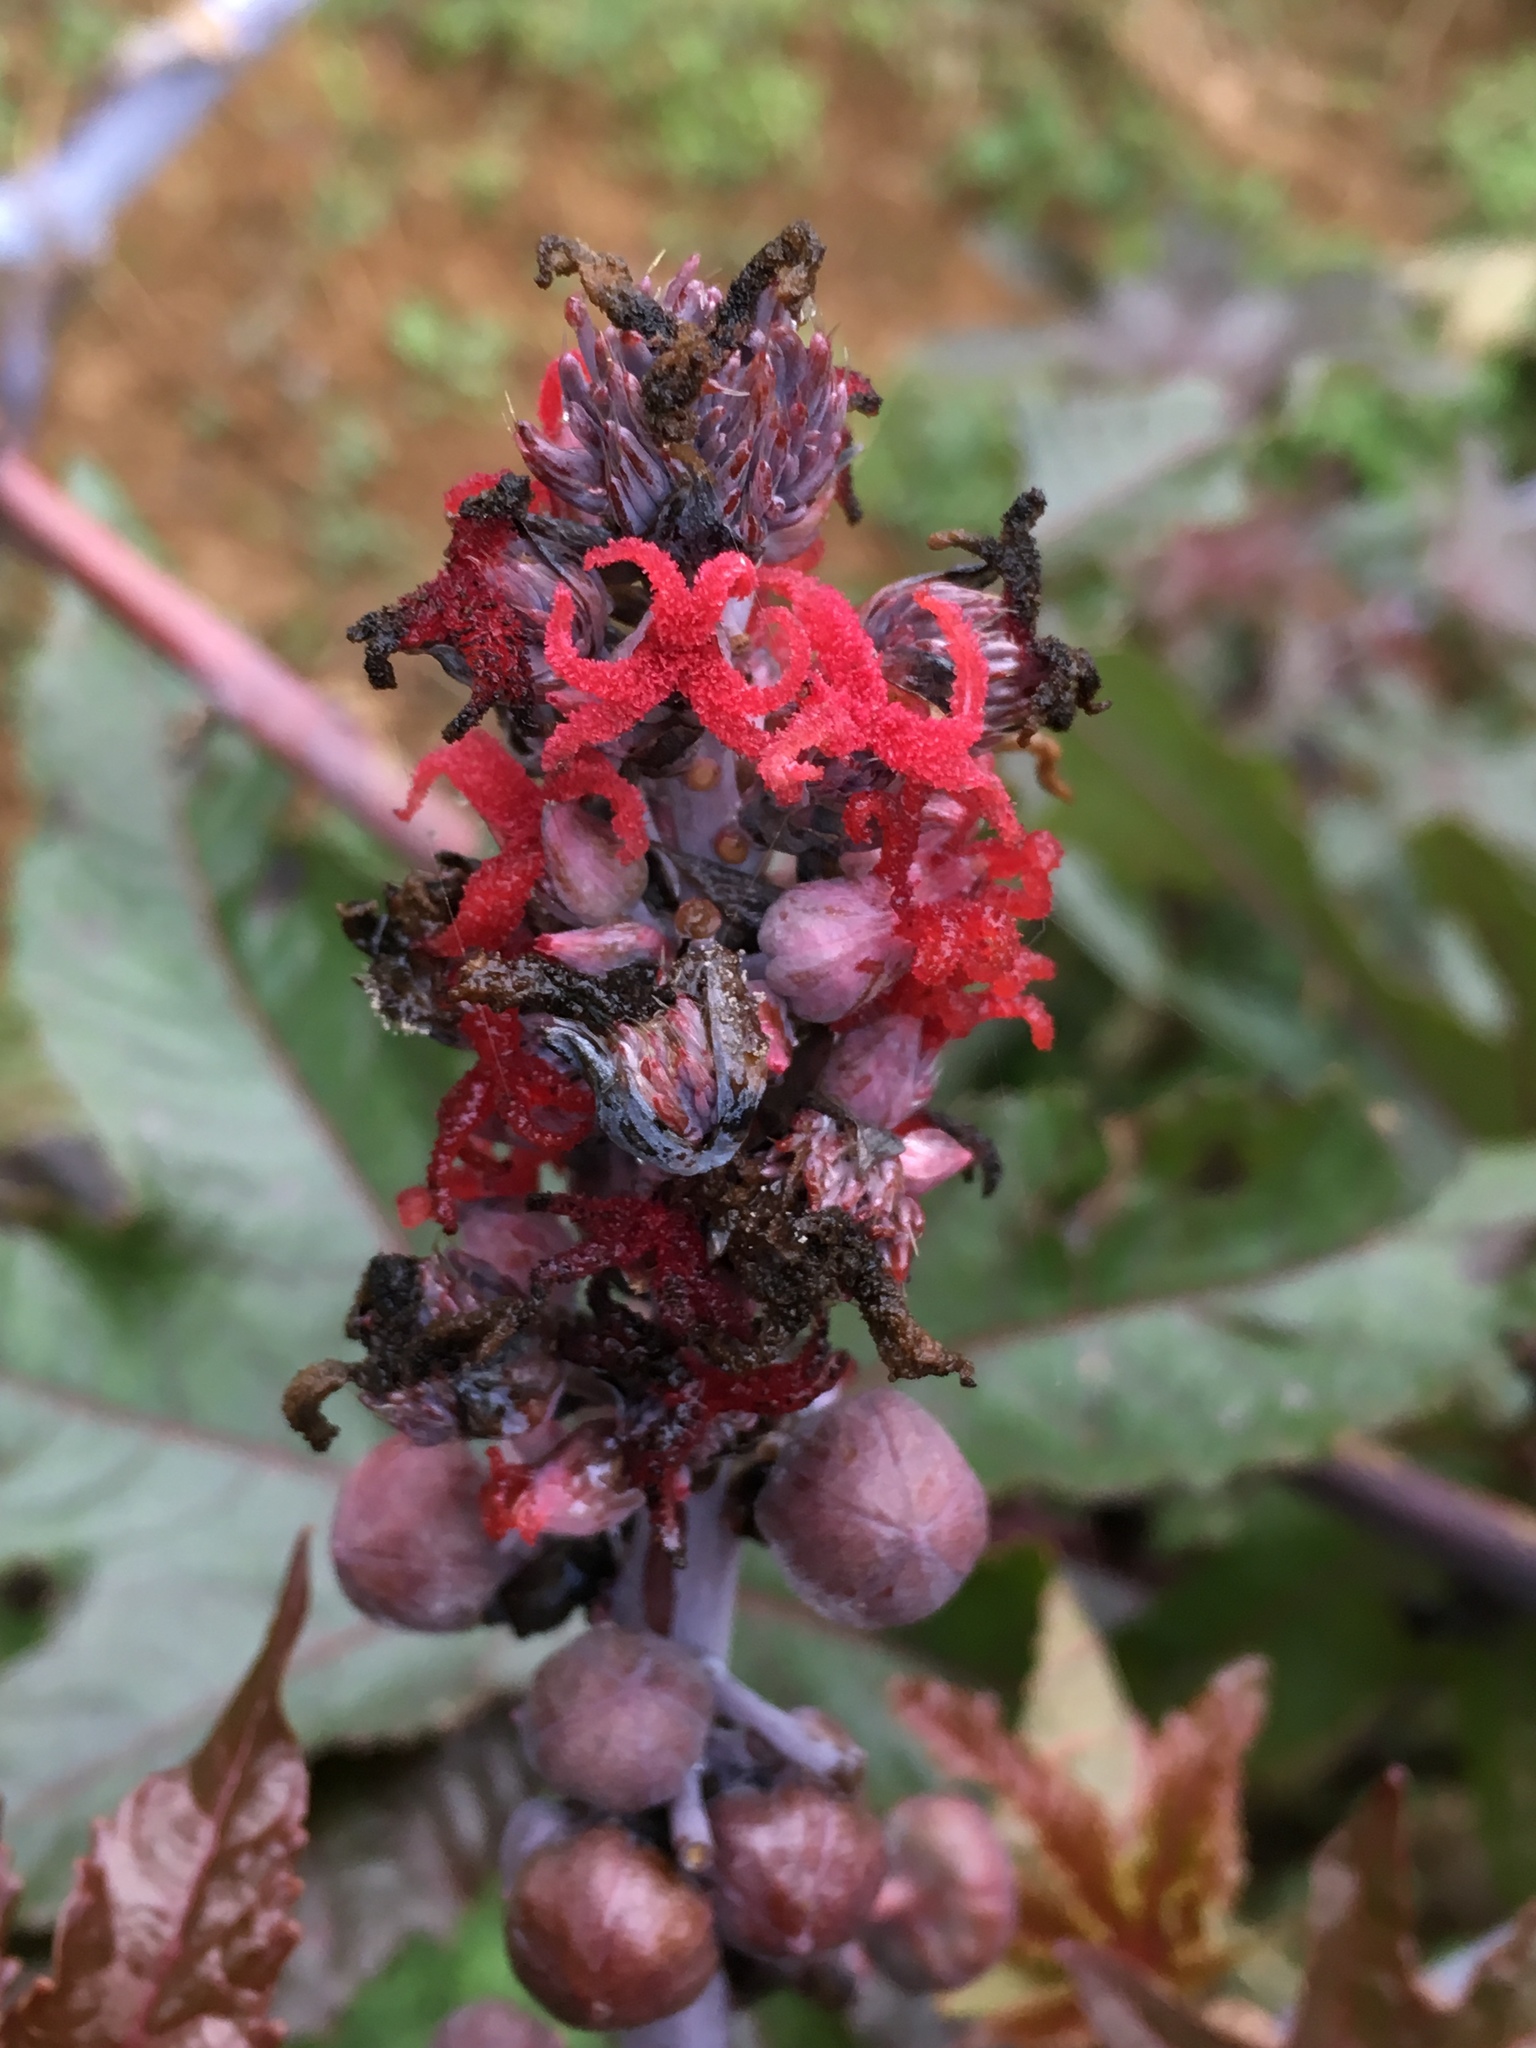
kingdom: Plantae
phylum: Tracheophyta
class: Magnoliopsida
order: Malpighiales
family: Euphorbiaceae
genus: Ricinus
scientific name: Ricinus communis
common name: Castor-oil-plant
